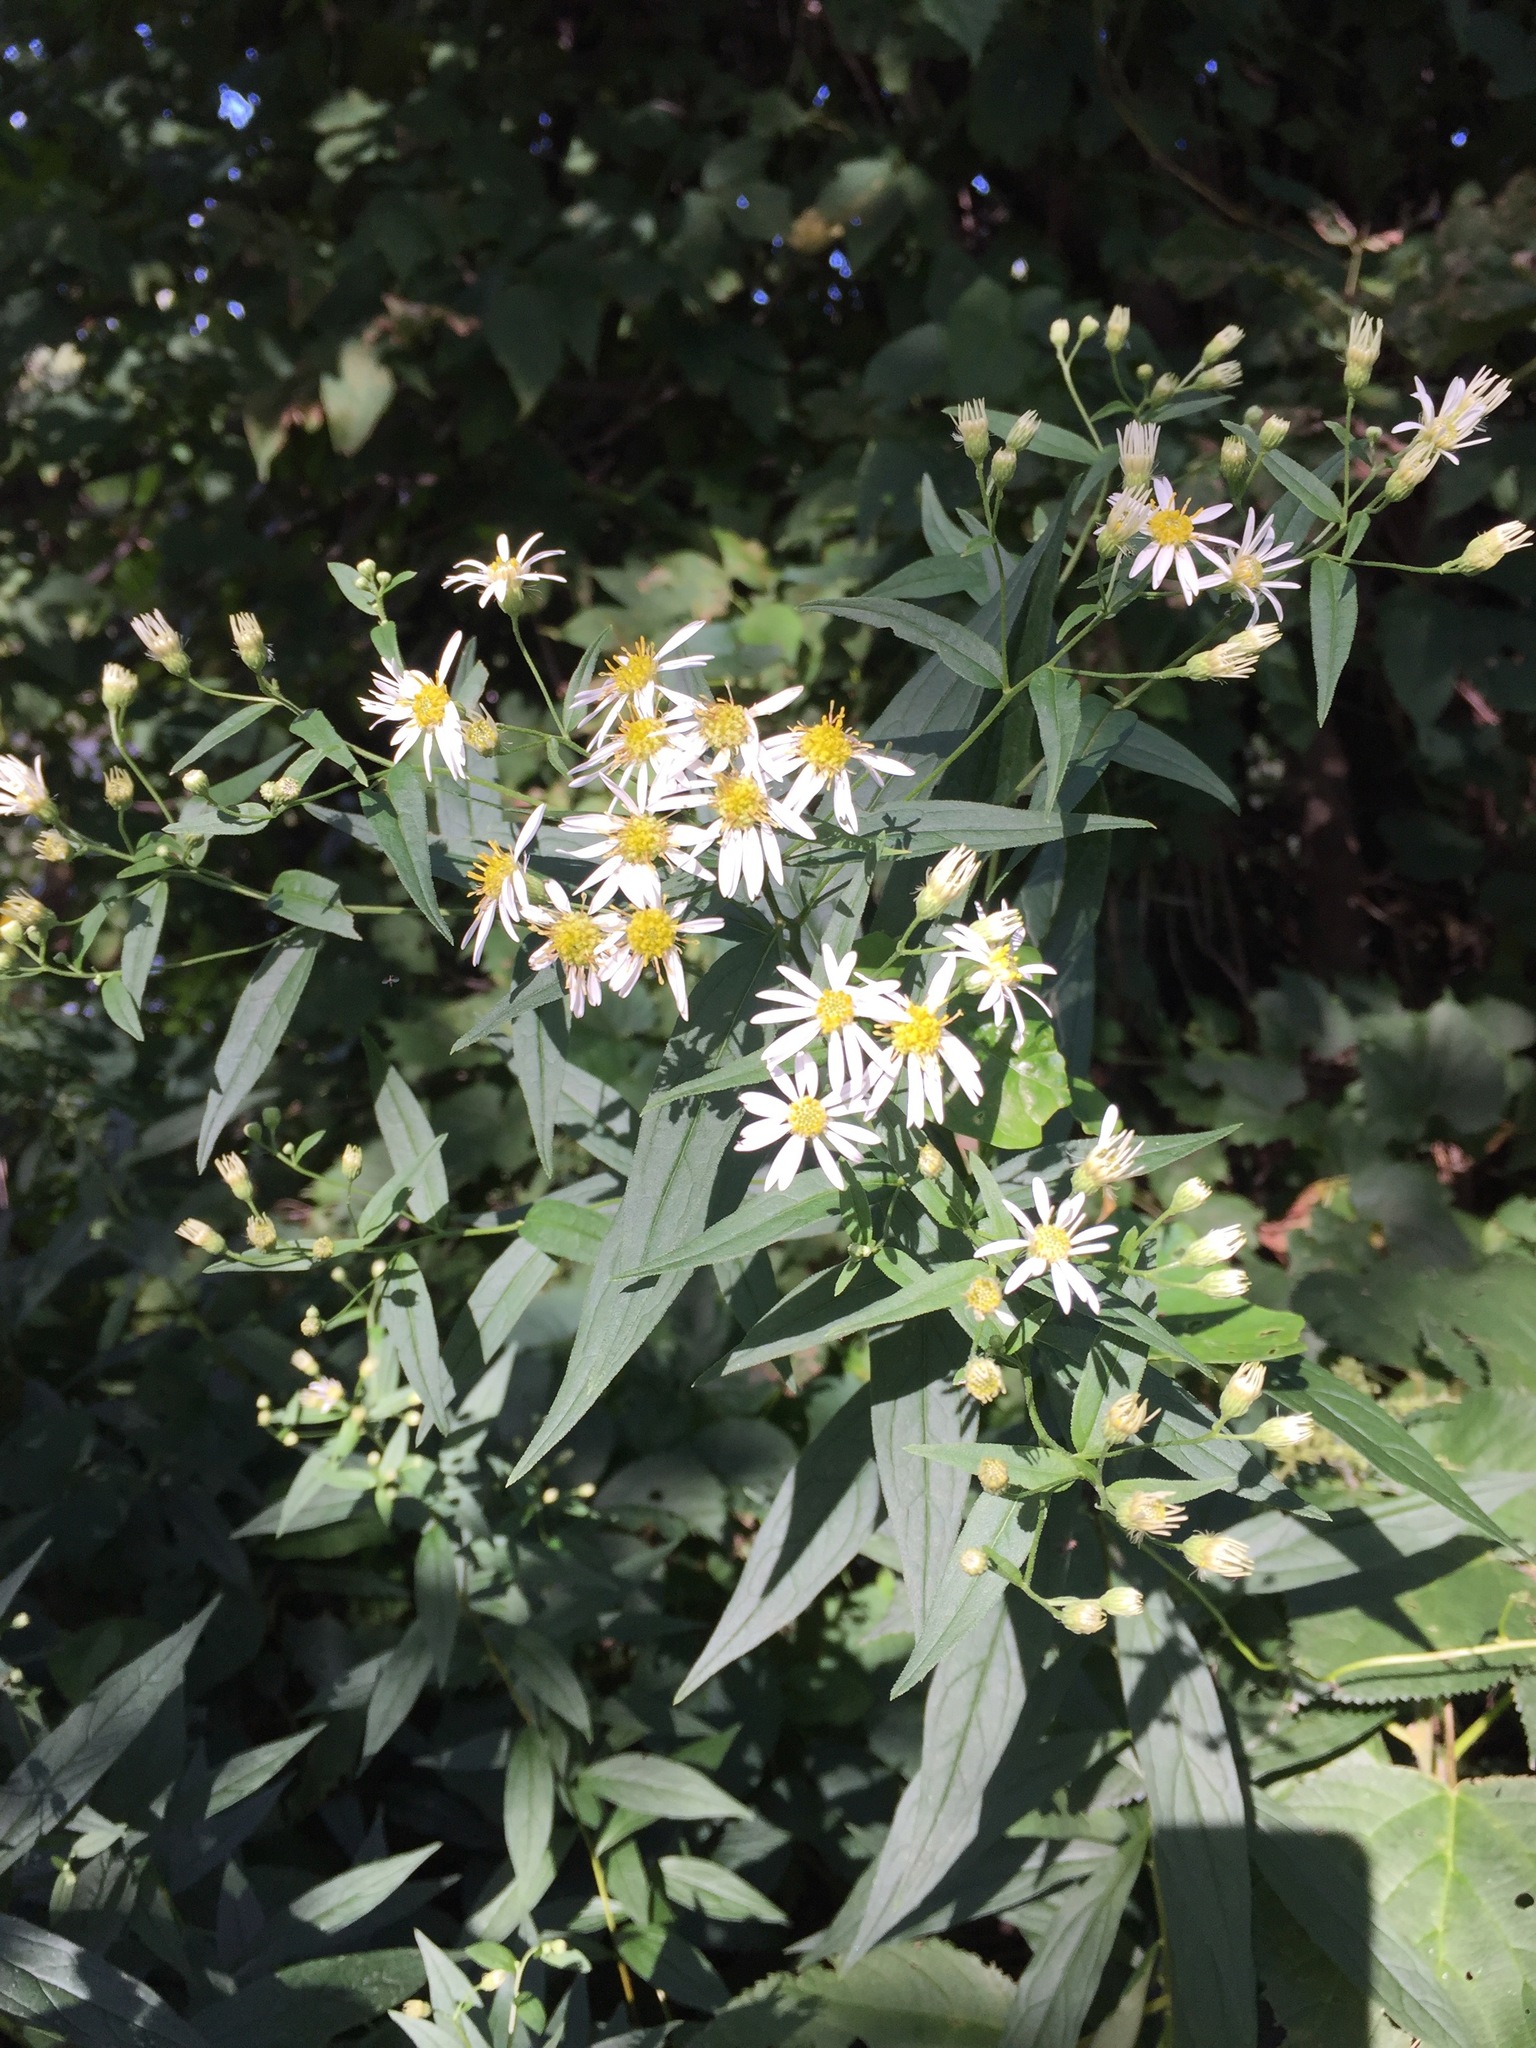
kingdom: Plantae
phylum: Tracheophyta
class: Magnoliopsida
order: Asterales
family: Asteraceae
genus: Doellingeria
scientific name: Doellingeria umbellata
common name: Flat-top white aster
